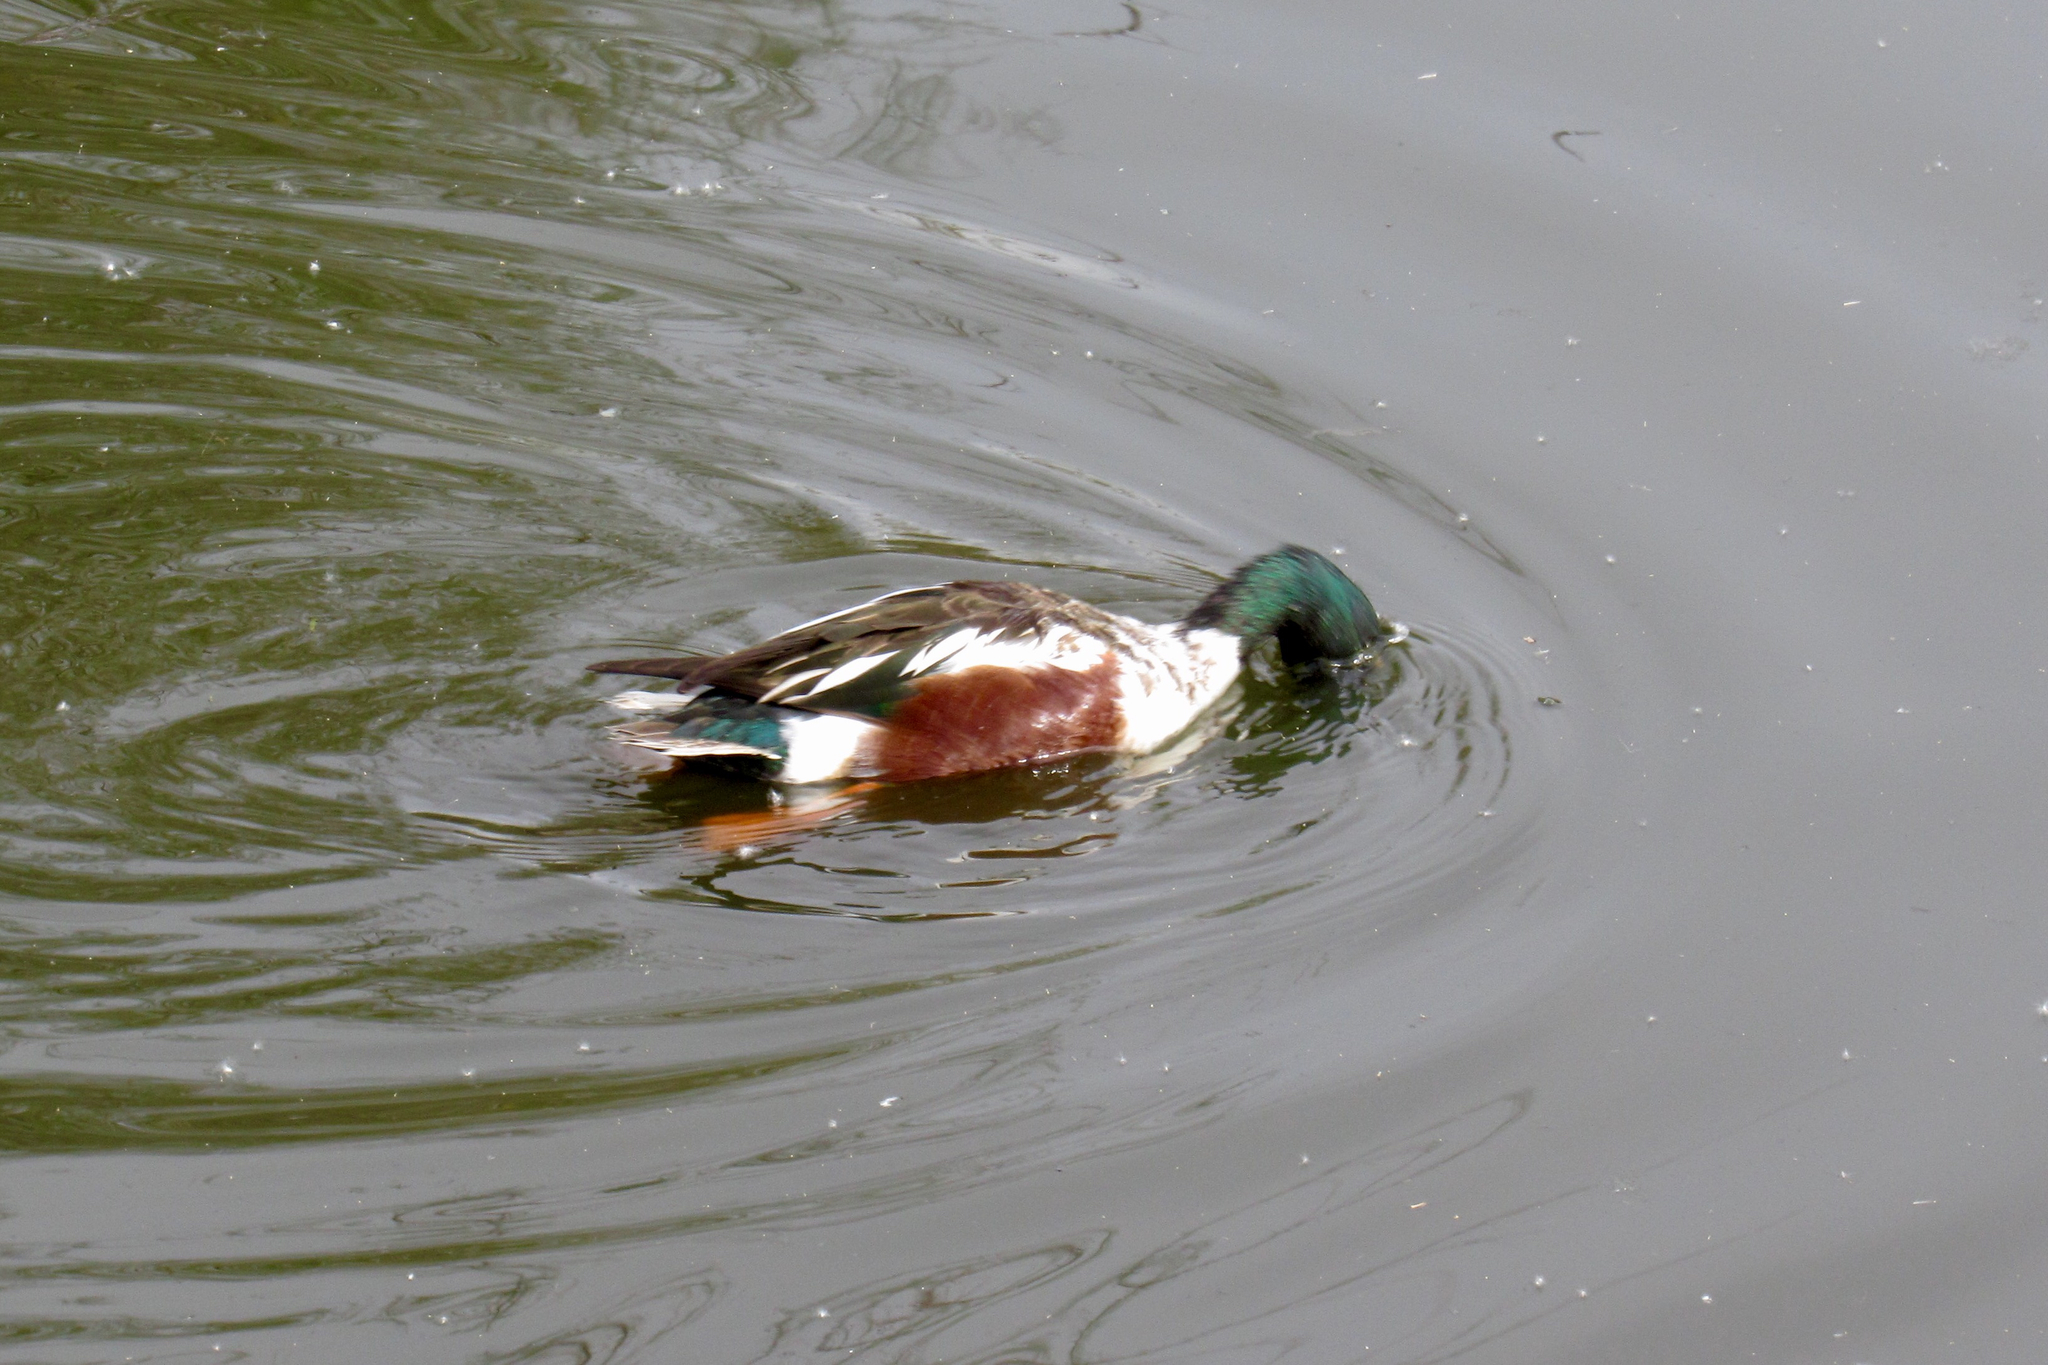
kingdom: Animalia
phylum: Chordata
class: Aves
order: Anseriformes
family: Anatidae
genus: Spatula
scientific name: Spatula clypeata
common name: Northern shoveler
